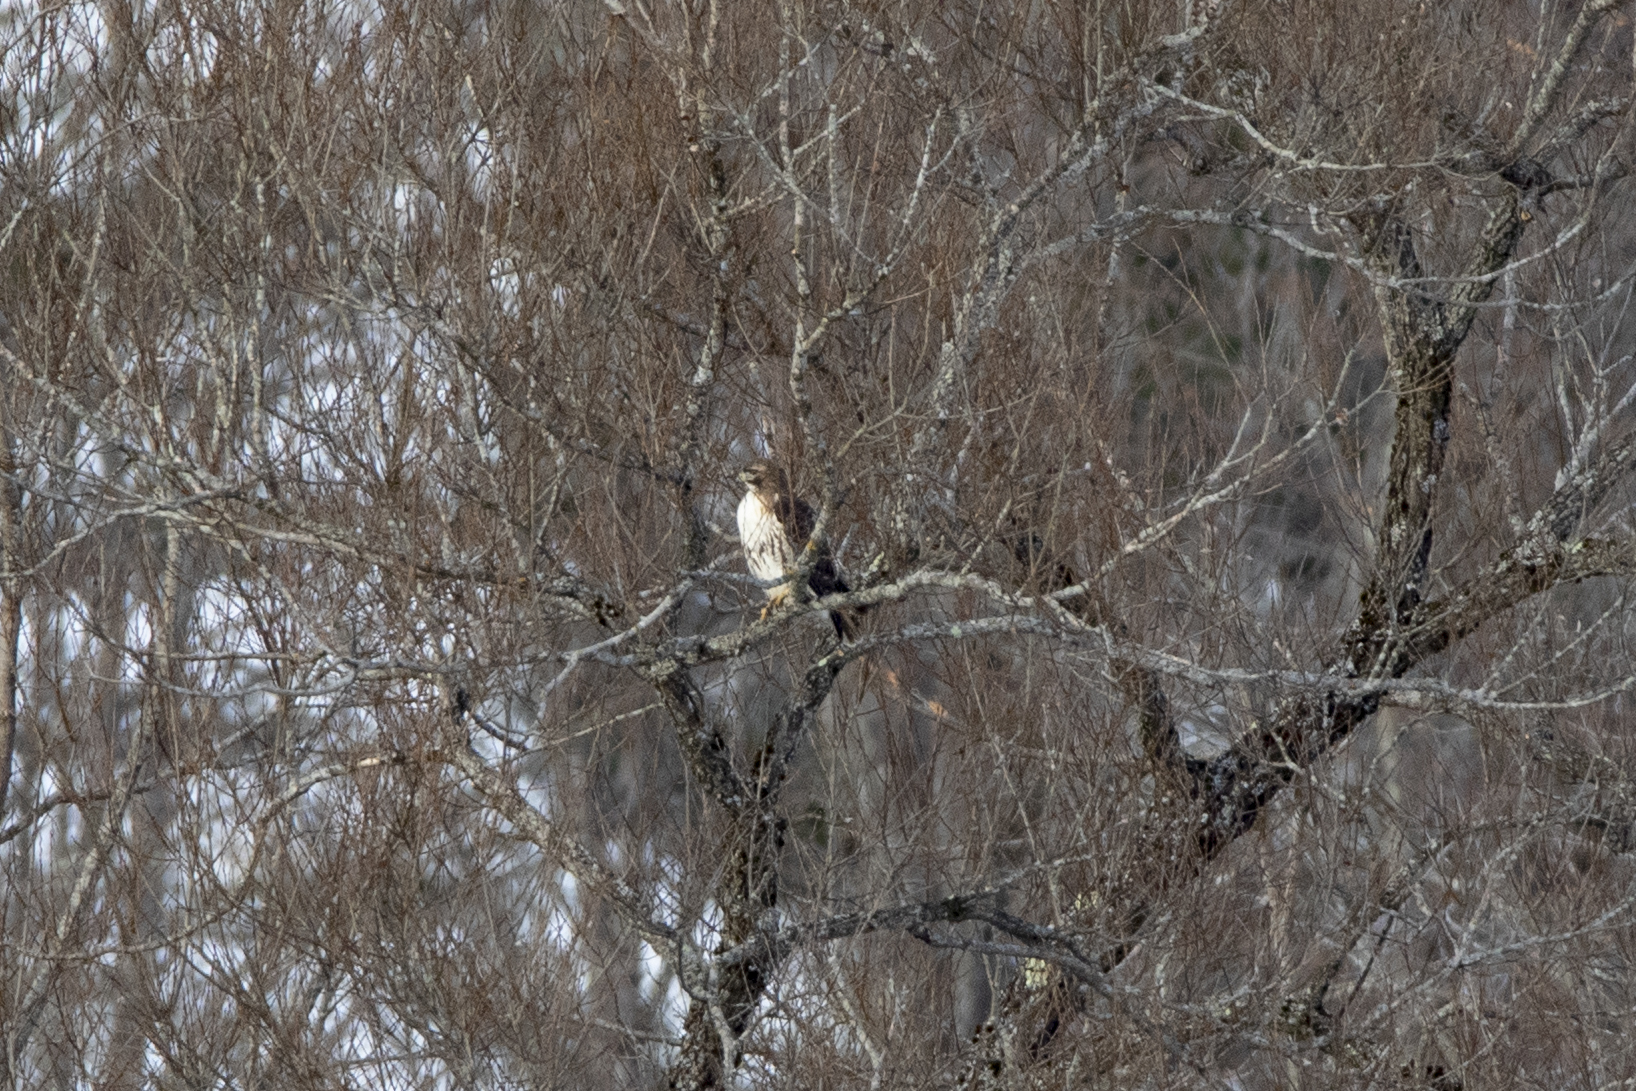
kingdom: Animalia
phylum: Chordata
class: Aves
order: Accipitriformes
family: Accipitridae
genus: Buteo
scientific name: Buteo jamaicensis
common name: Red-tailed hawk
